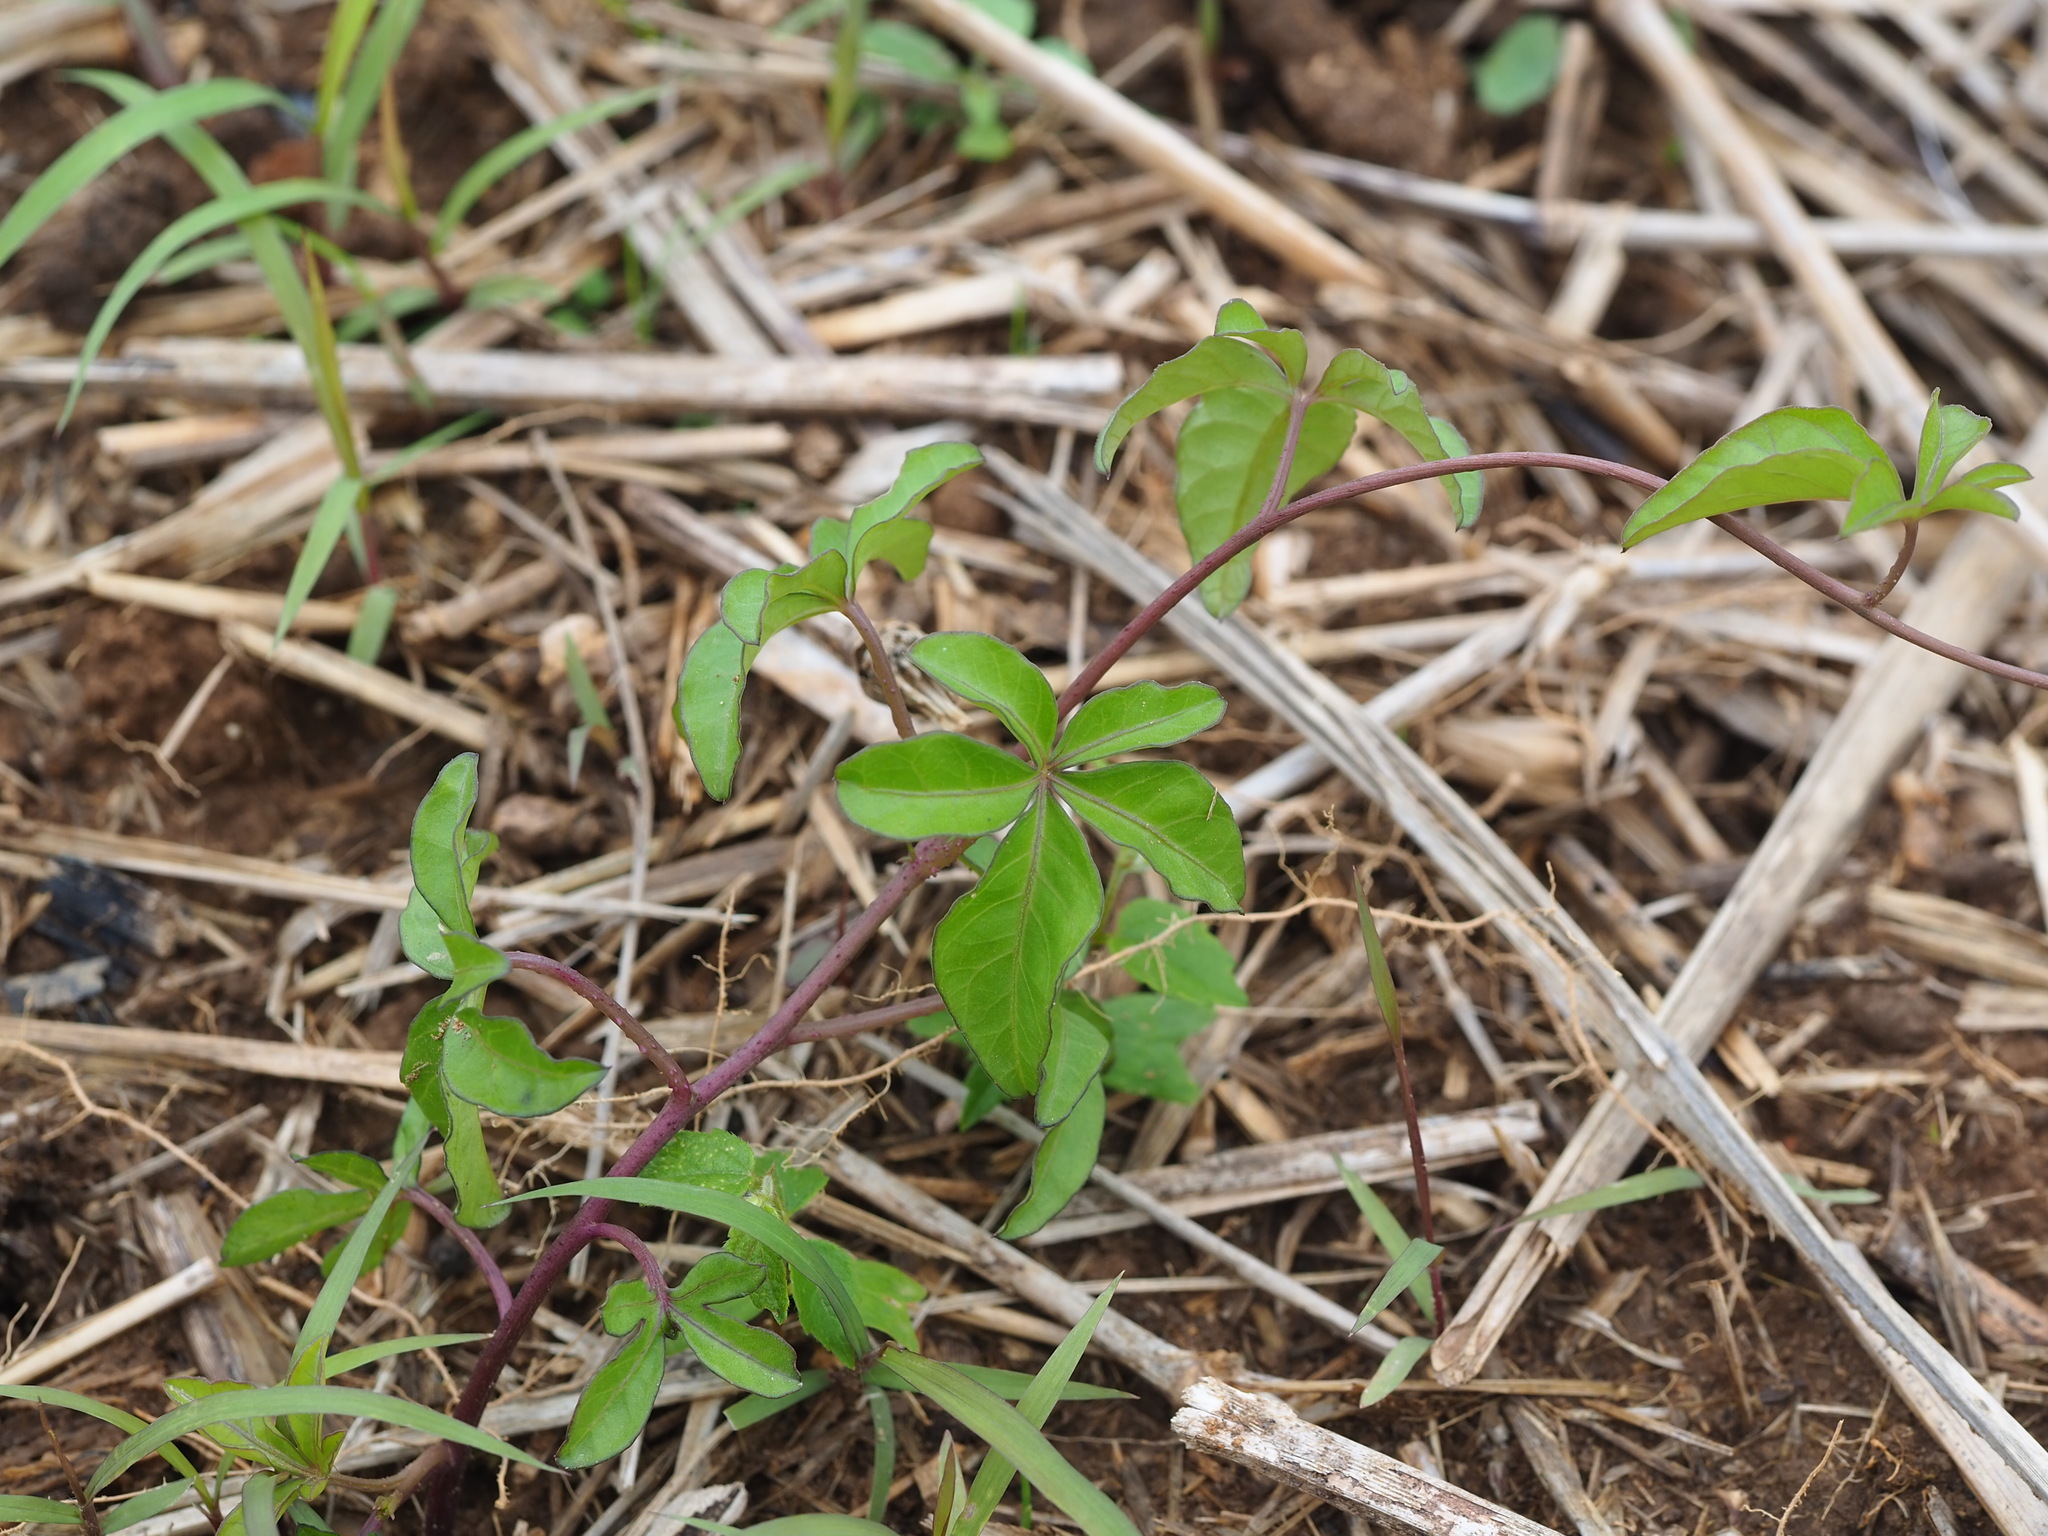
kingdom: Plantae
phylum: Tracheophyta
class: Magnoliopsida
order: Solanales
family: Convolvulaceae
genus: Ipomoea
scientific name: Ipomoea cairica
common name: Mile a minute vine
